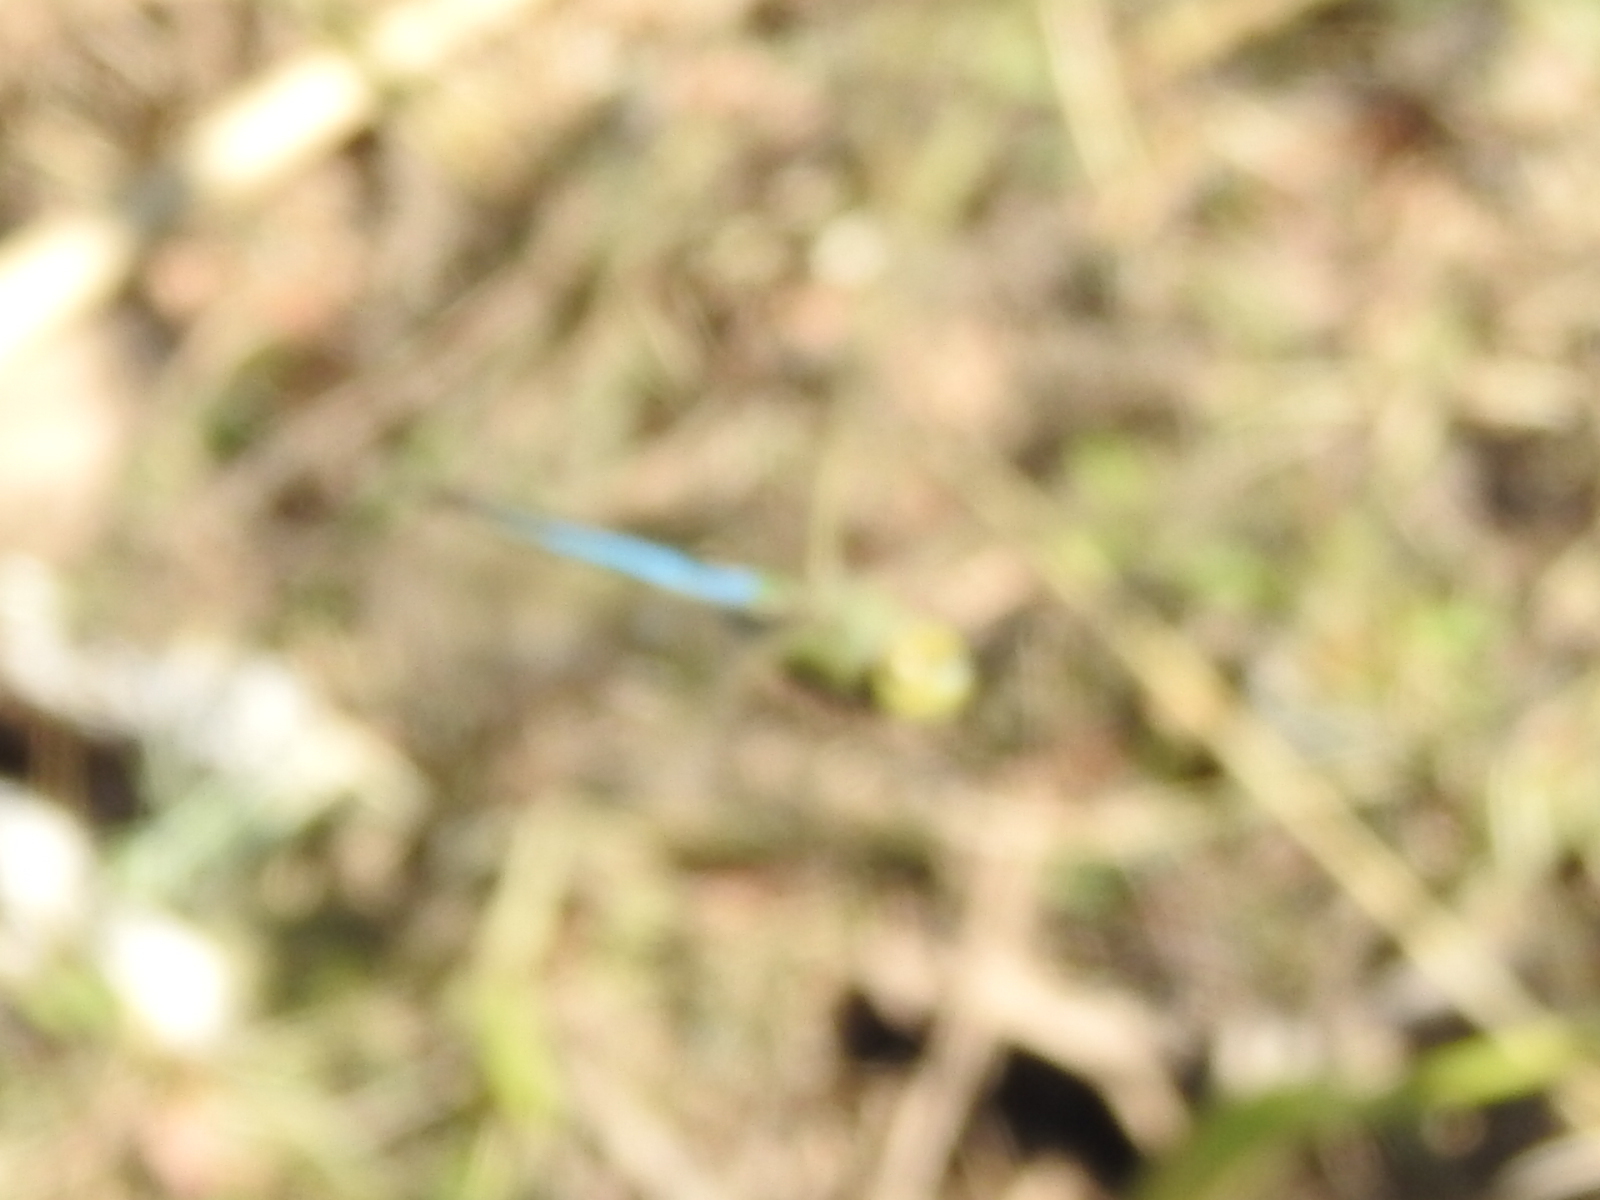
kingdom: Animalia
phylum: Arthropoda
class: Insecta
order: Odonata
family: Aeshnidae
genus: Anax
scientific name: Anax junius
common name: Common green darner
